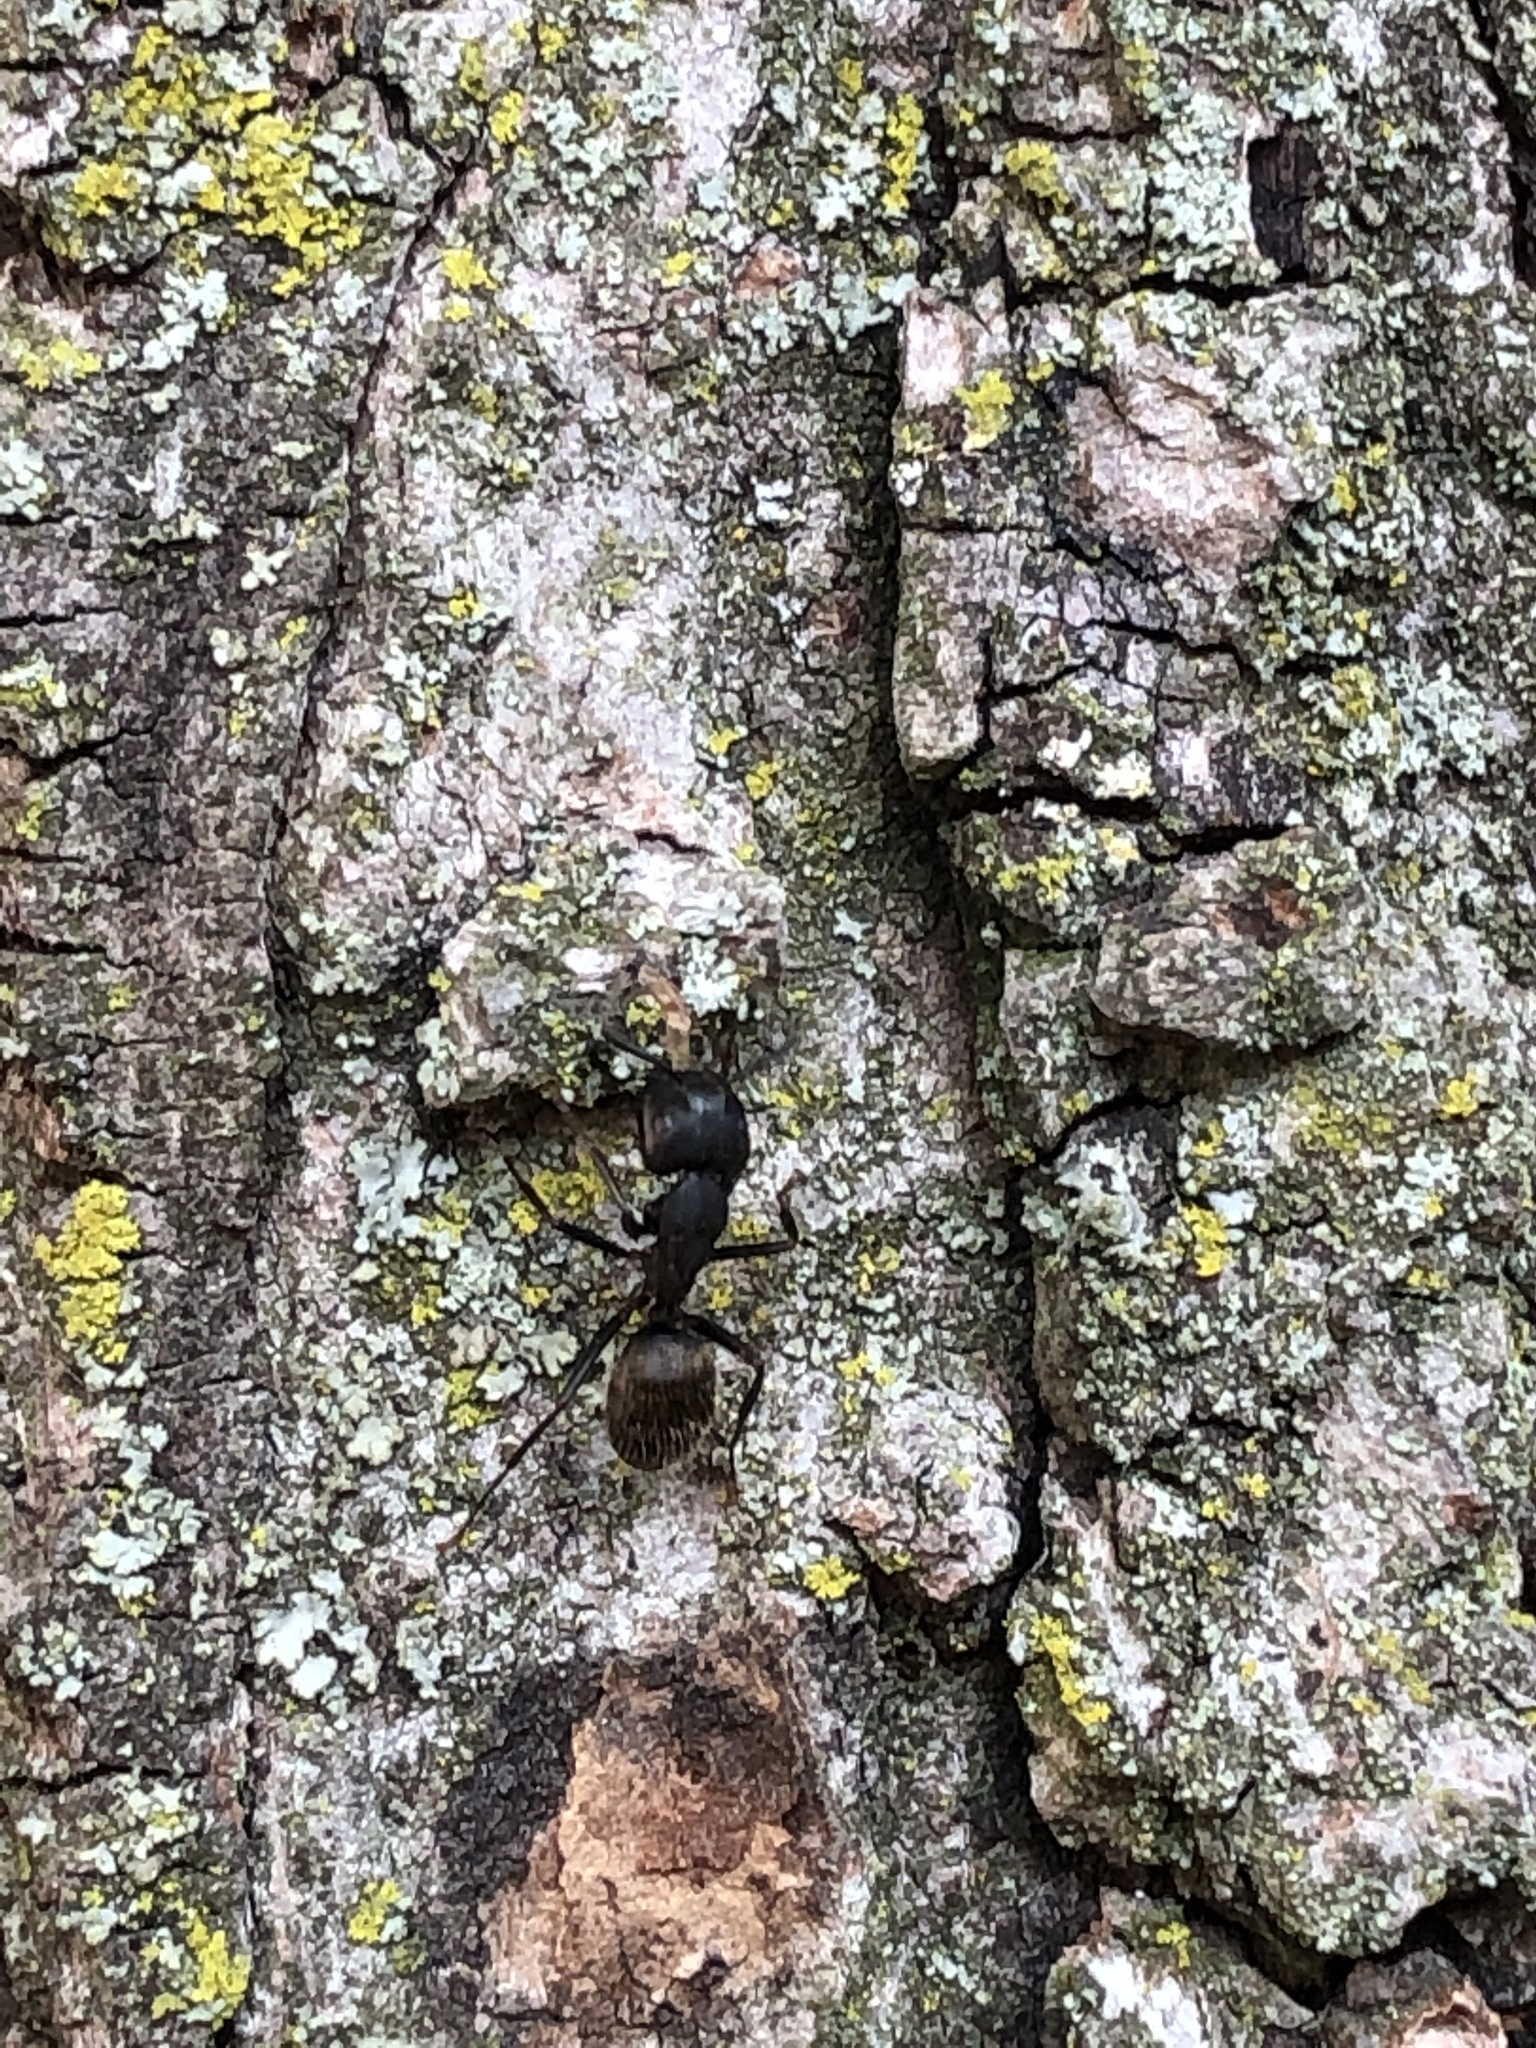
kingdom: Animalia
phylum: Arthropoda
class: Insecta
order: Hymenoptera
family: Formicidae
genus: Camponotus
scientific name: Camponotus pennsylvanicus
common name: Black carpenter ant
